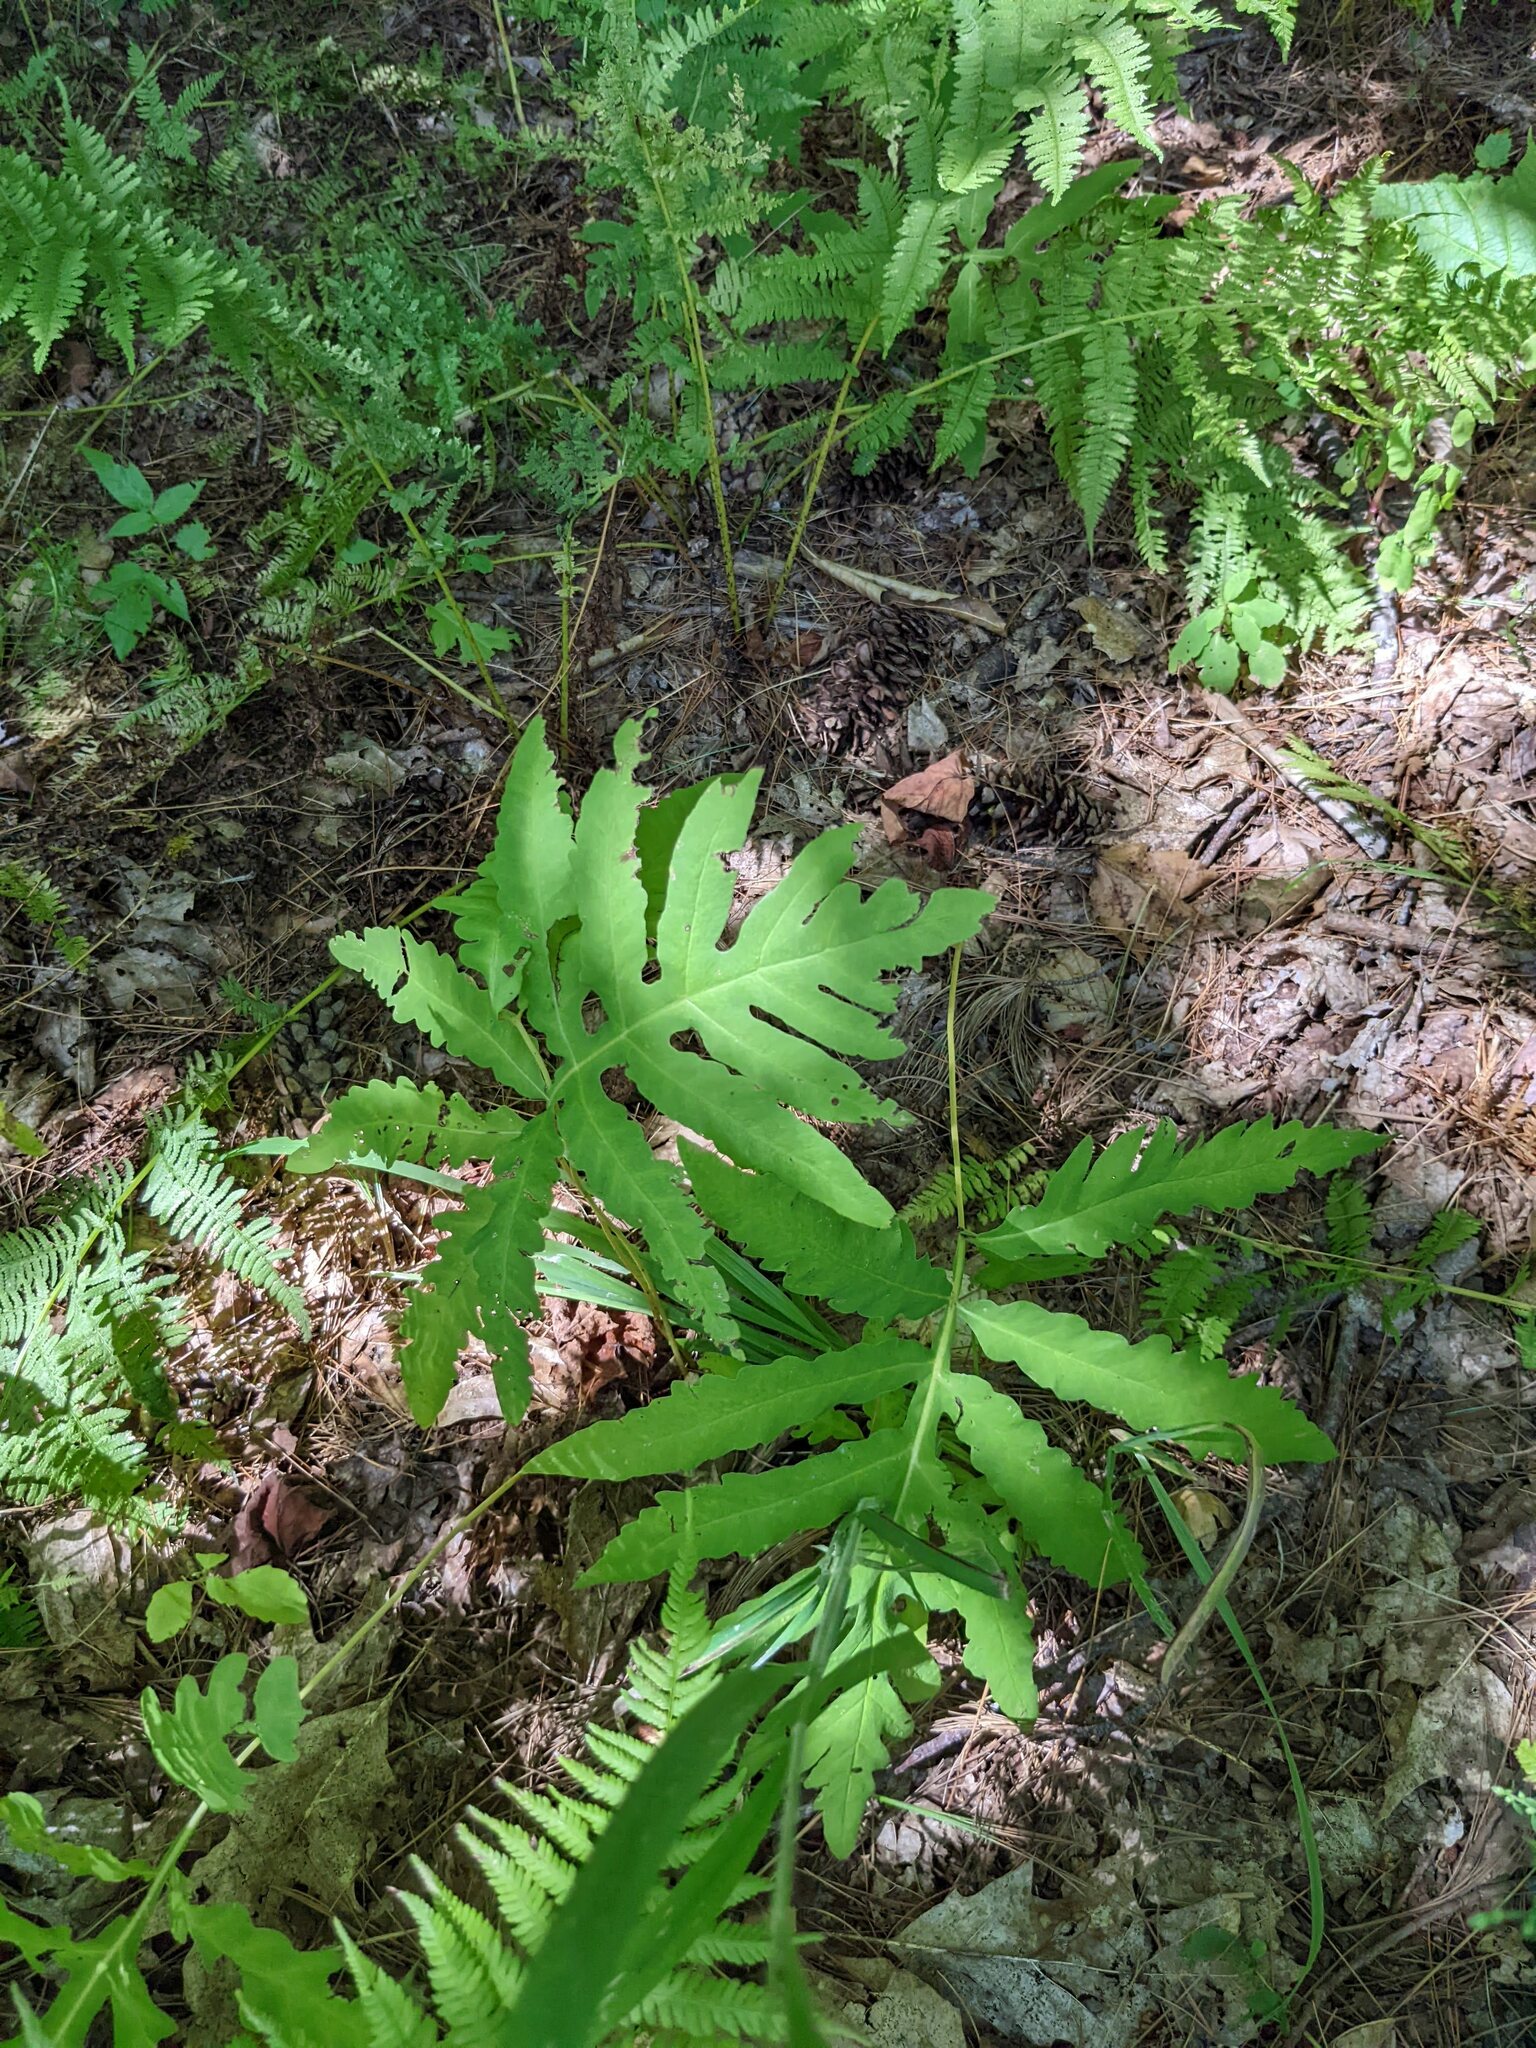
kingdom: Plantae
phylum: Tracheophyta
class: Polypodiopsida
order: Polypodiales
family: Onocleaceae
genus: Onoclea
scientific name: Onoclea sensibilis
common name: Sensitive fern
